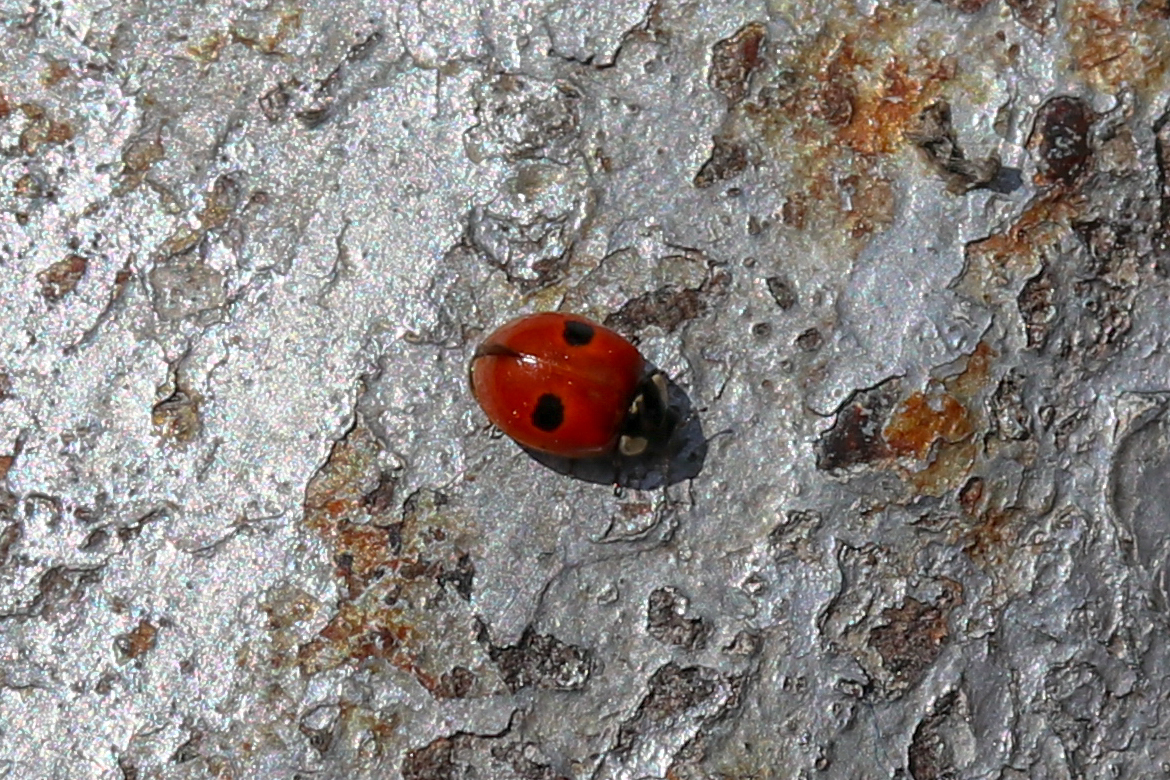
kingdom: Animalia
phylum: Arthropoda
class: Insecta
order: Coleoptera
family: Coccinellidae
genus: Adalia
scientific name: Adalia bipunctata
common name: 2-spot ladybird
